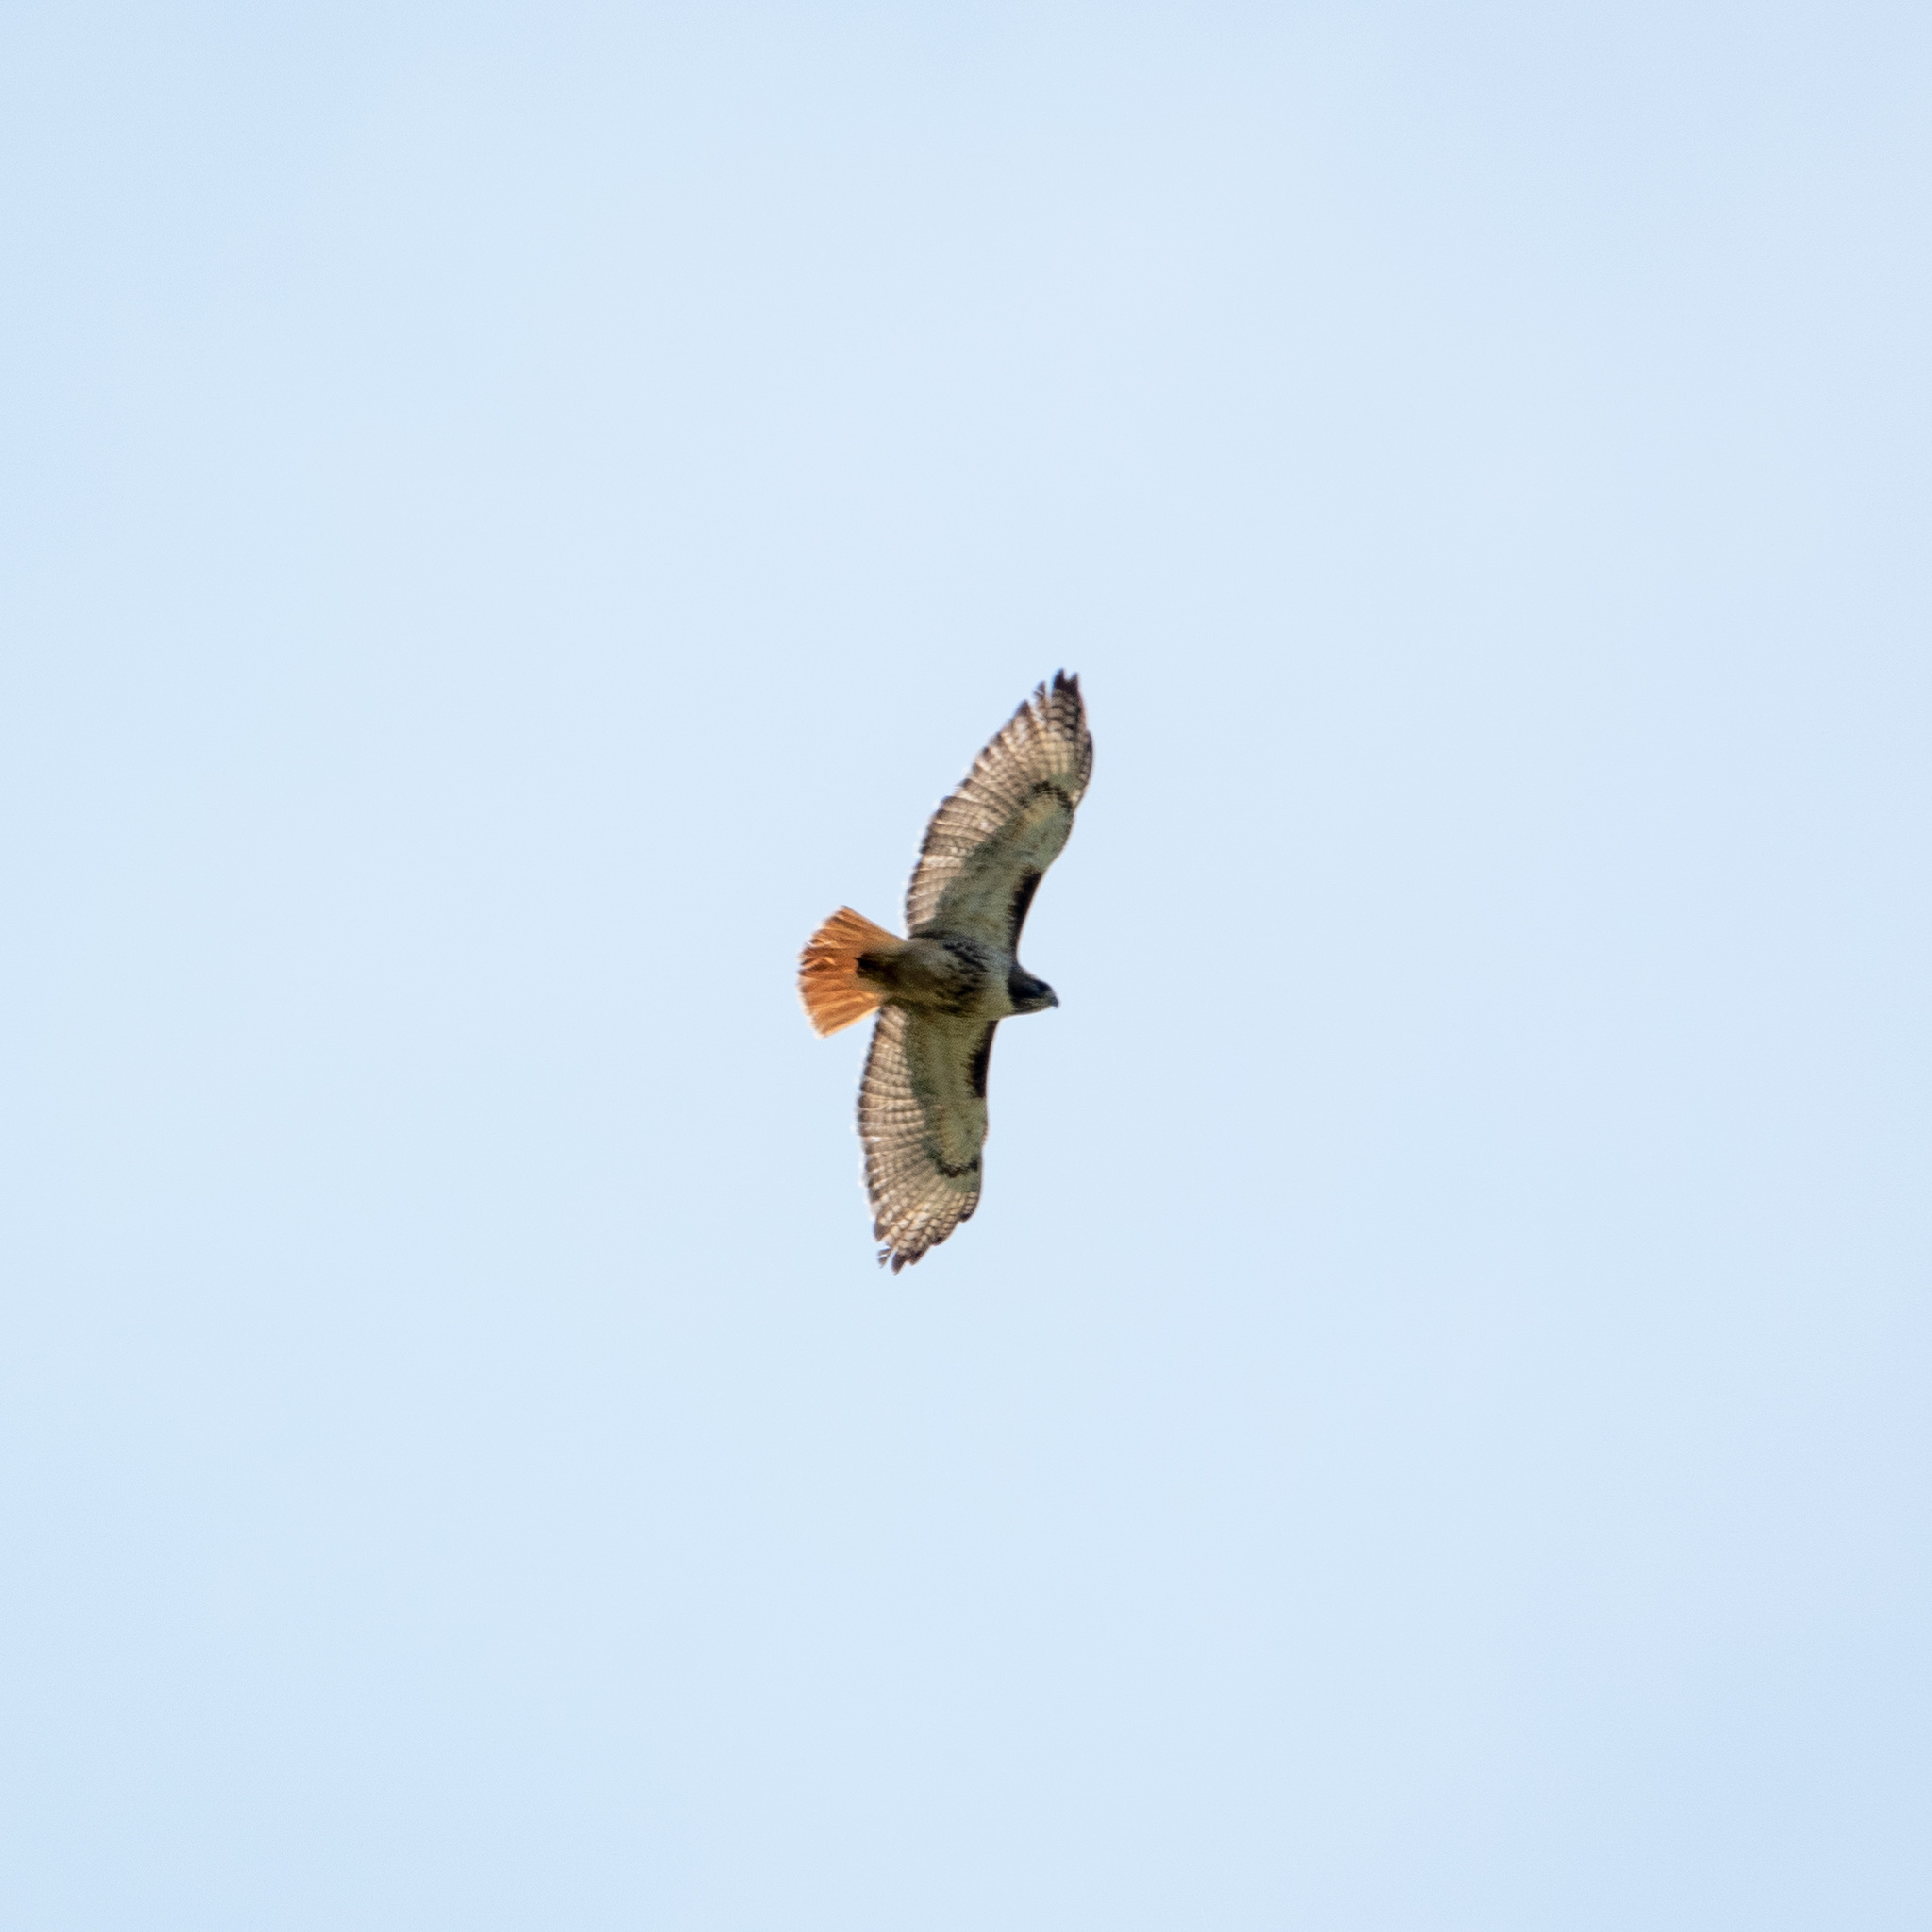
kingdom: Animalia
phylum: Chordata
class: Aves
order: Accipitriformes
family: Accipitridae
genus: Buteo
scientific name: Buteo jamaicensis
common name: Red-tailed hawk
